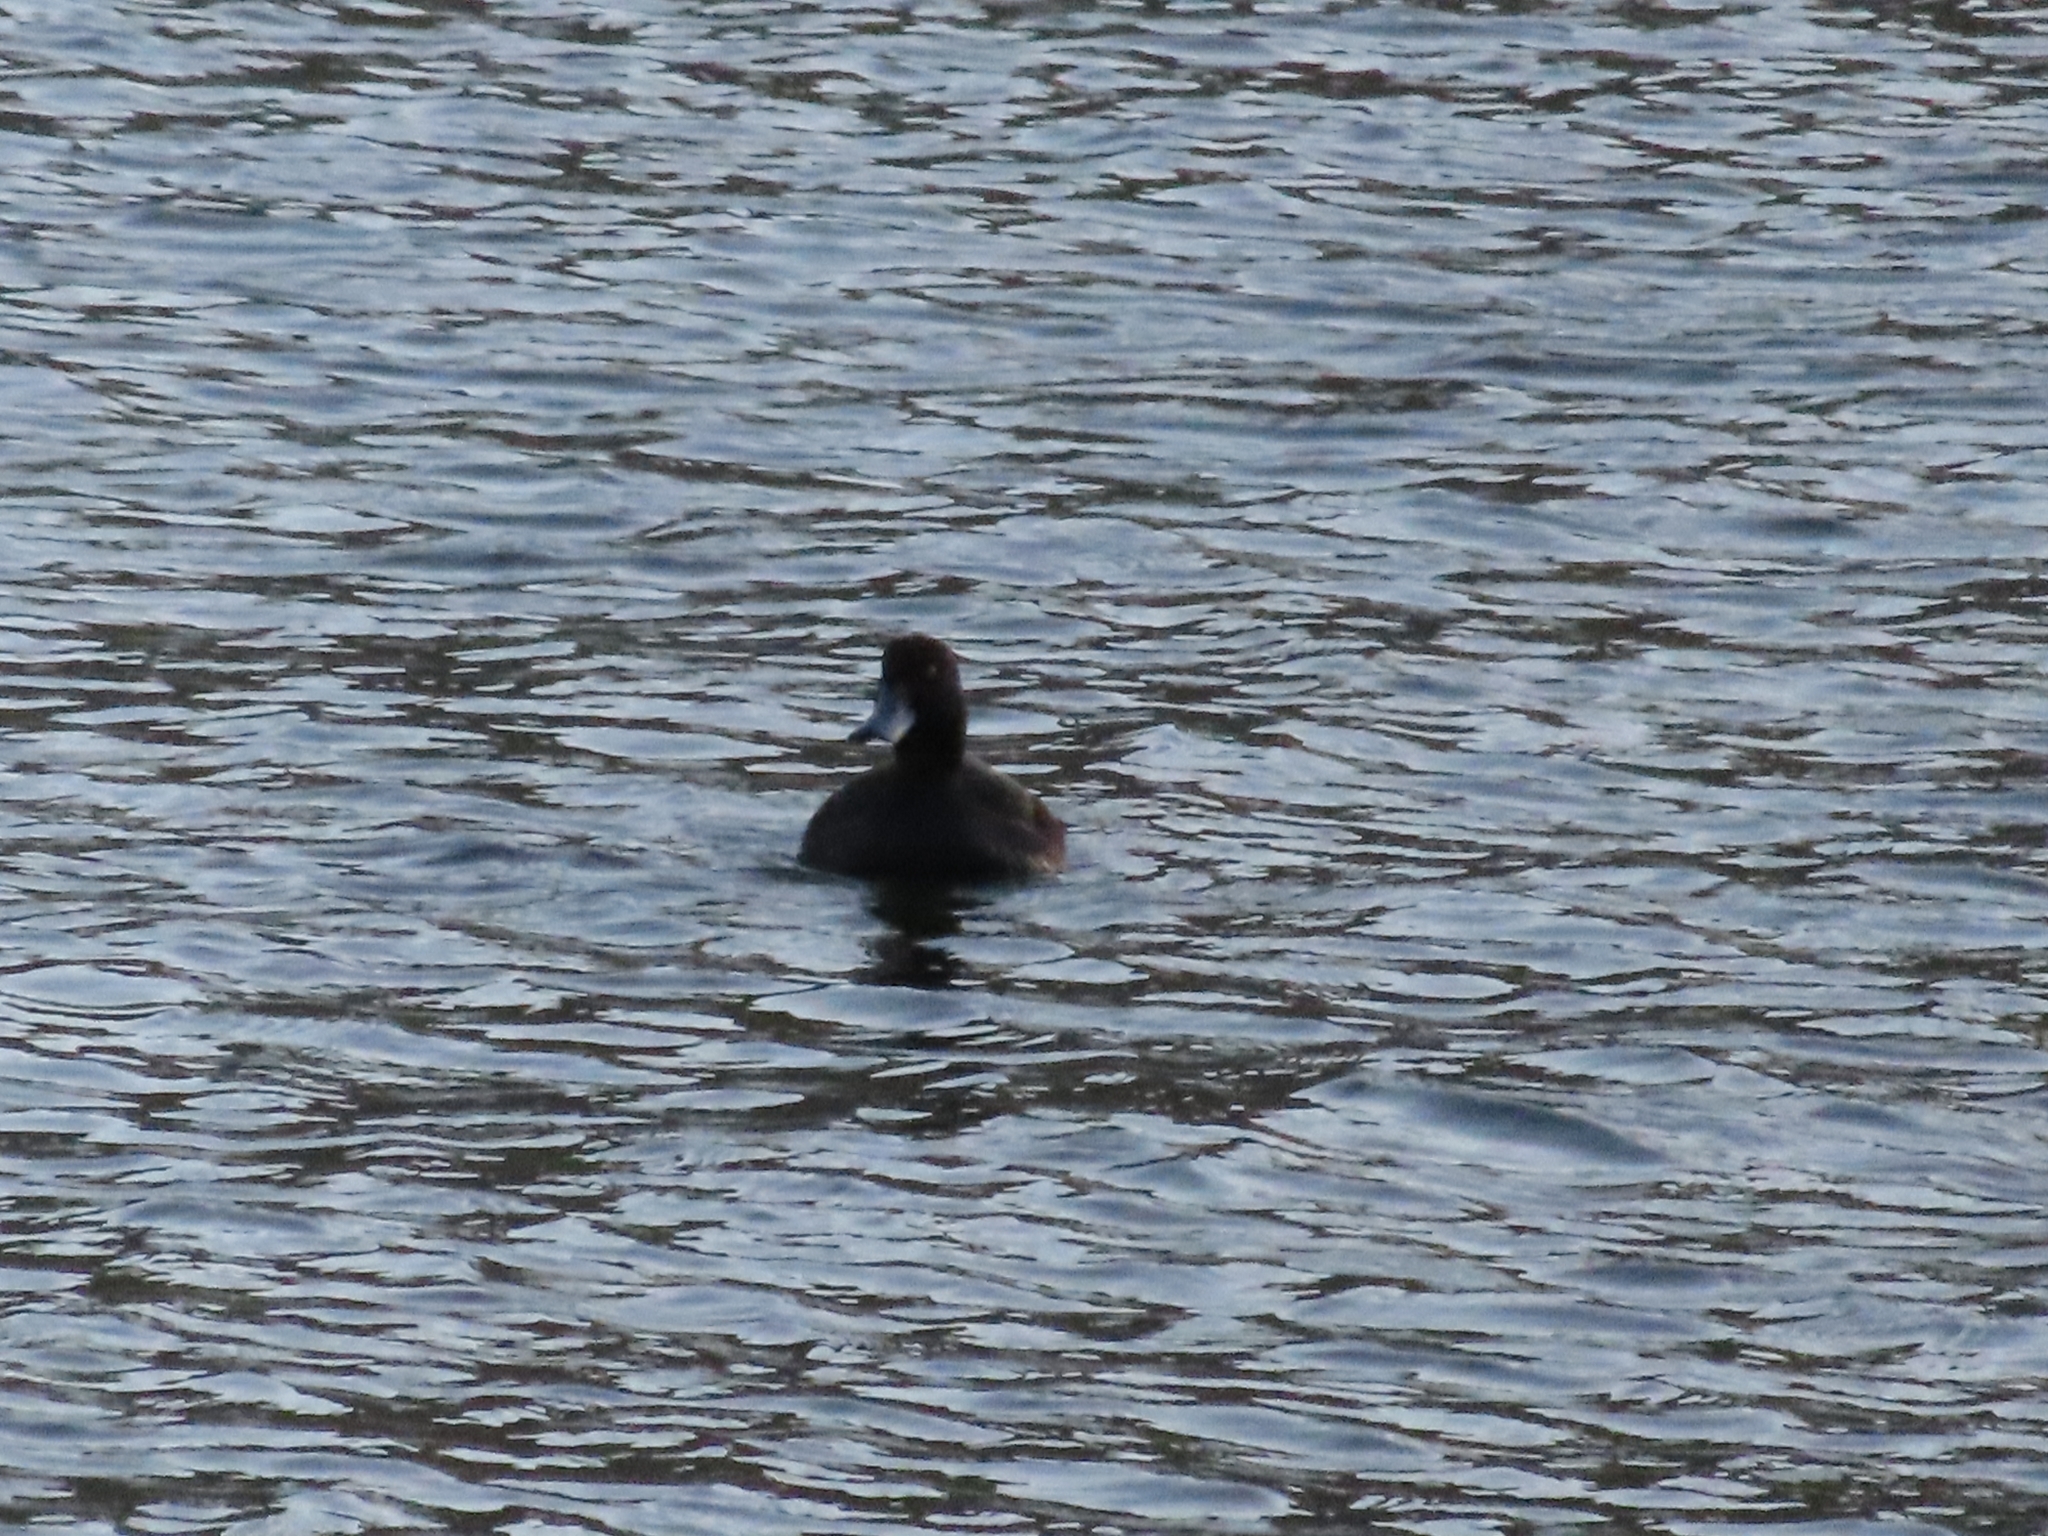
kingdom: Animalia
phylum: Chordata
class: Aves
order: Anseriformes
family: Anatidae
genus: Aythya
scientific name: Aythya novaeseelandiae
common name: New zealand scaup
